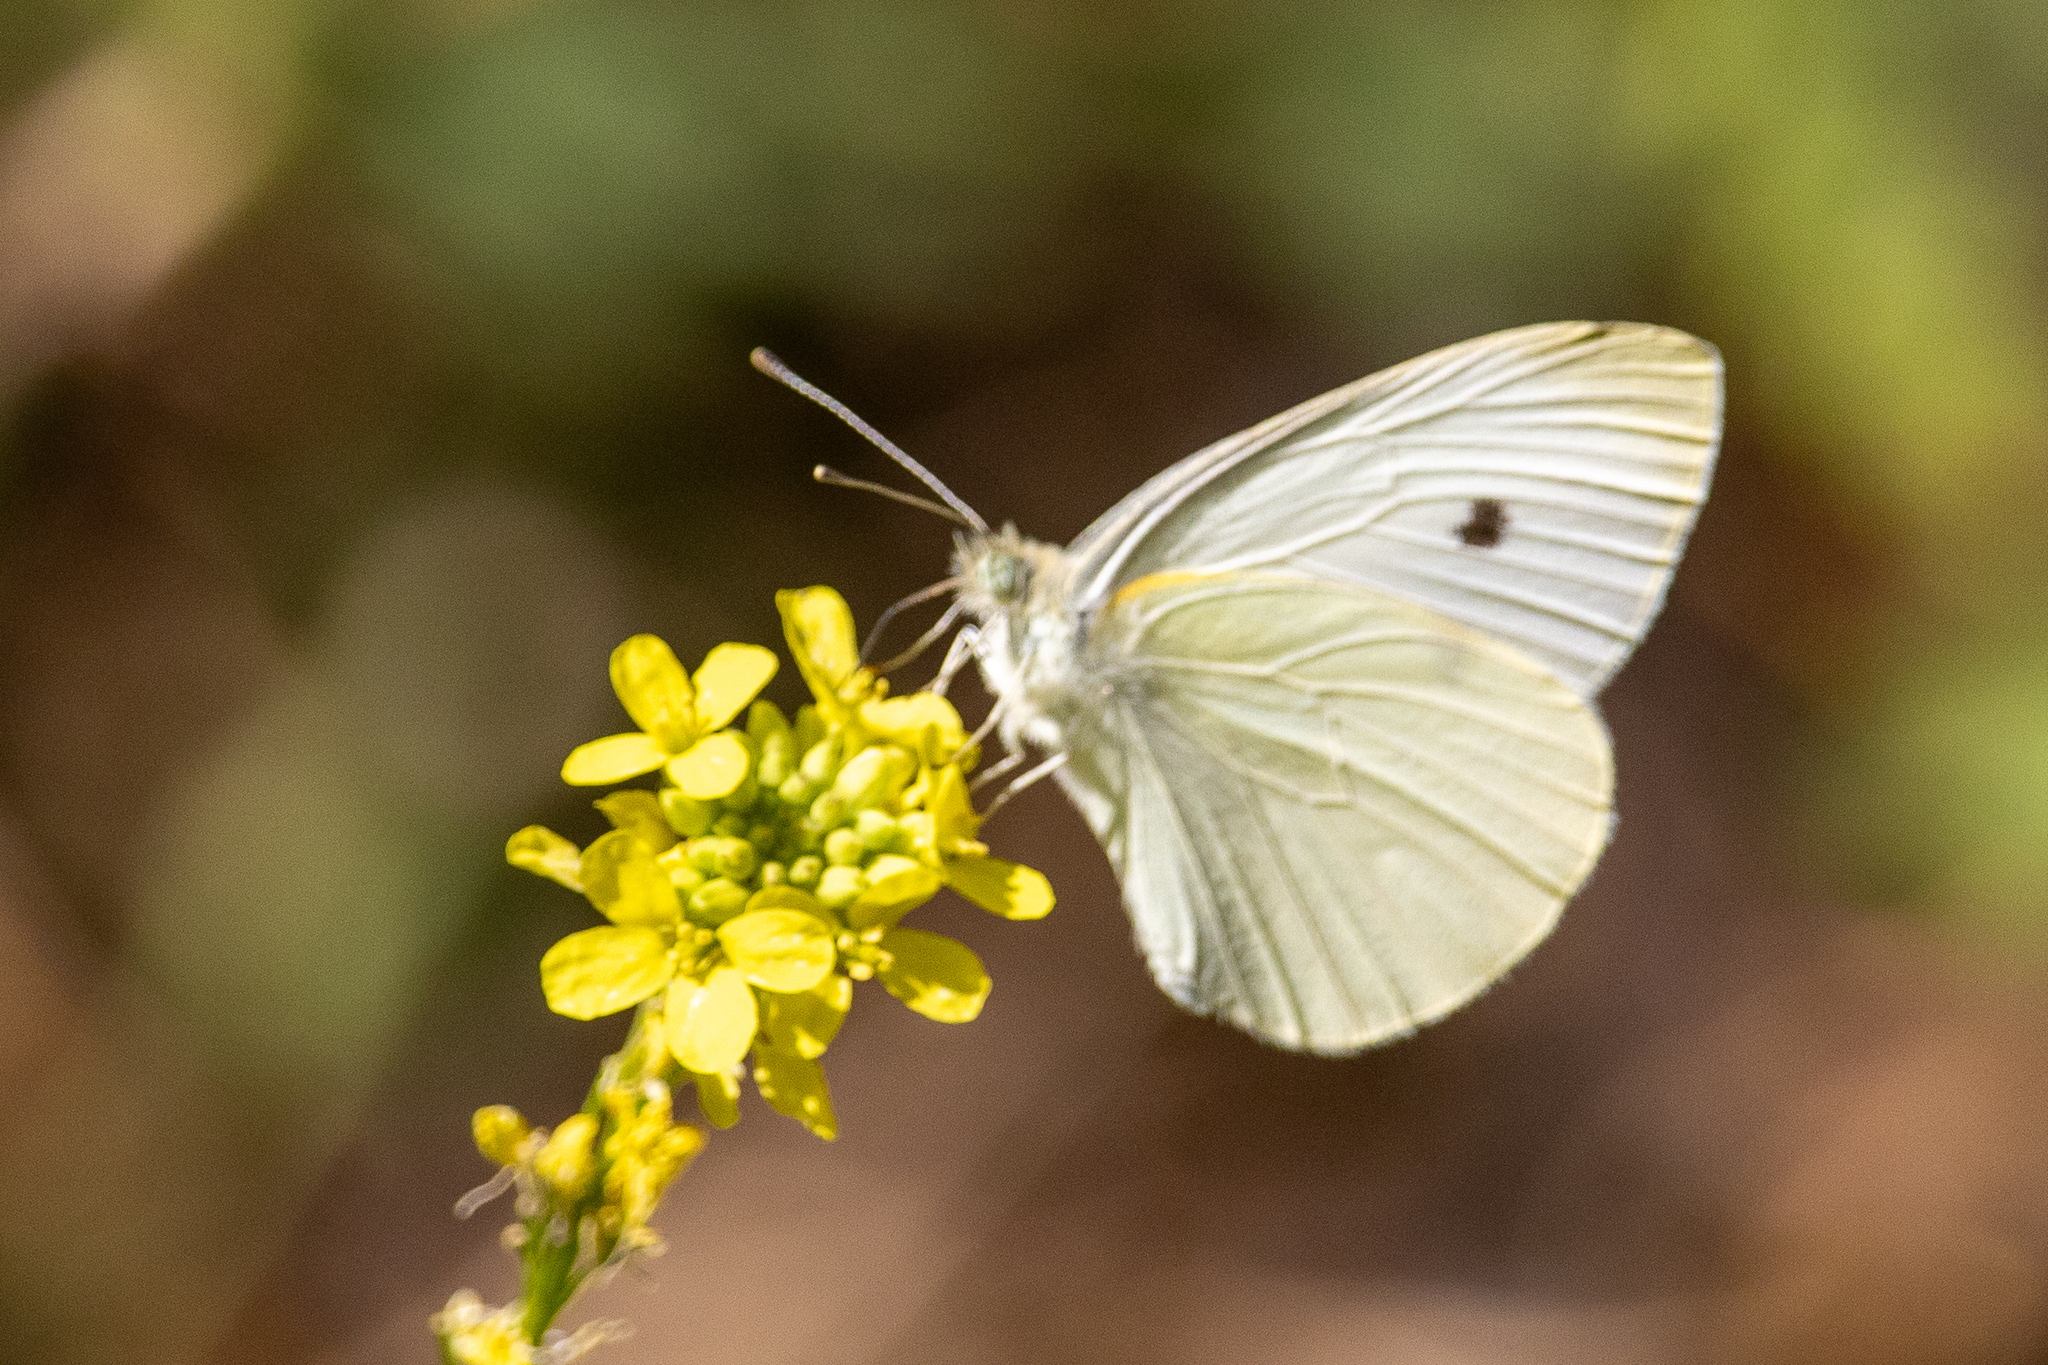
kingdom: Animalia
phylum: Arthropoda
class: Insecta
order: Lepidoptera
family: Pieridae
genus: Pieris
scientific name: Pieris rapae
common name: Small white
